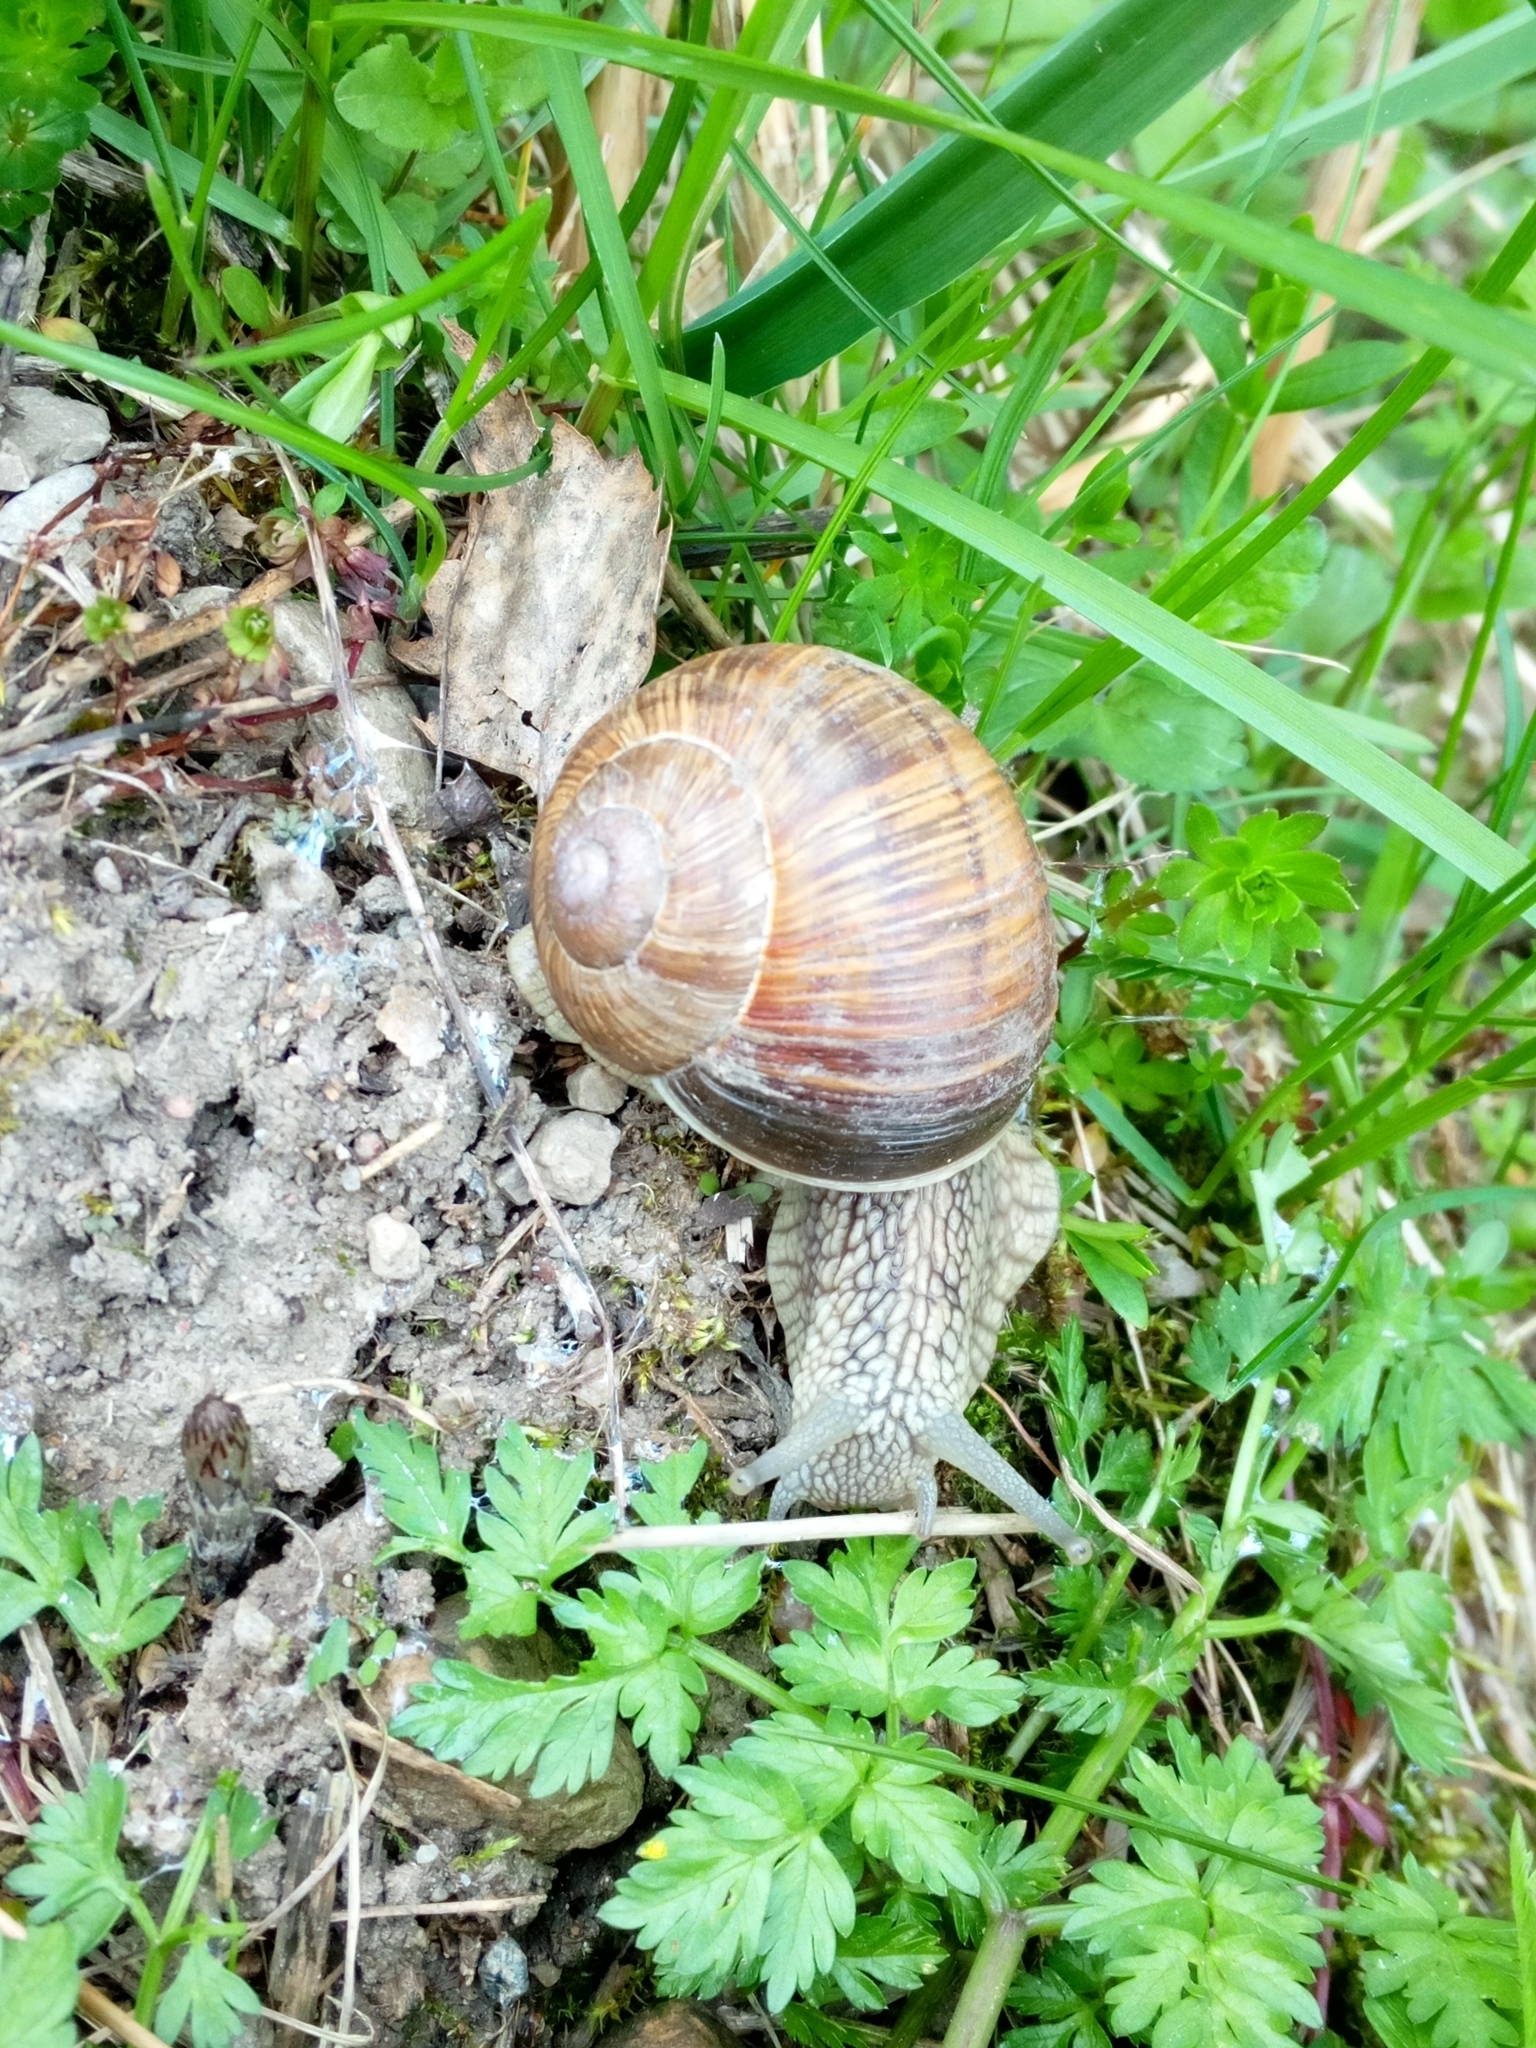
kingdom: Animalia
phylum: Mollusca
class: Gastropoda
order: Stylommatophora
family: Helicidae
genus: Helix
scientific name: Helix pomatia
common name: Roman snail
